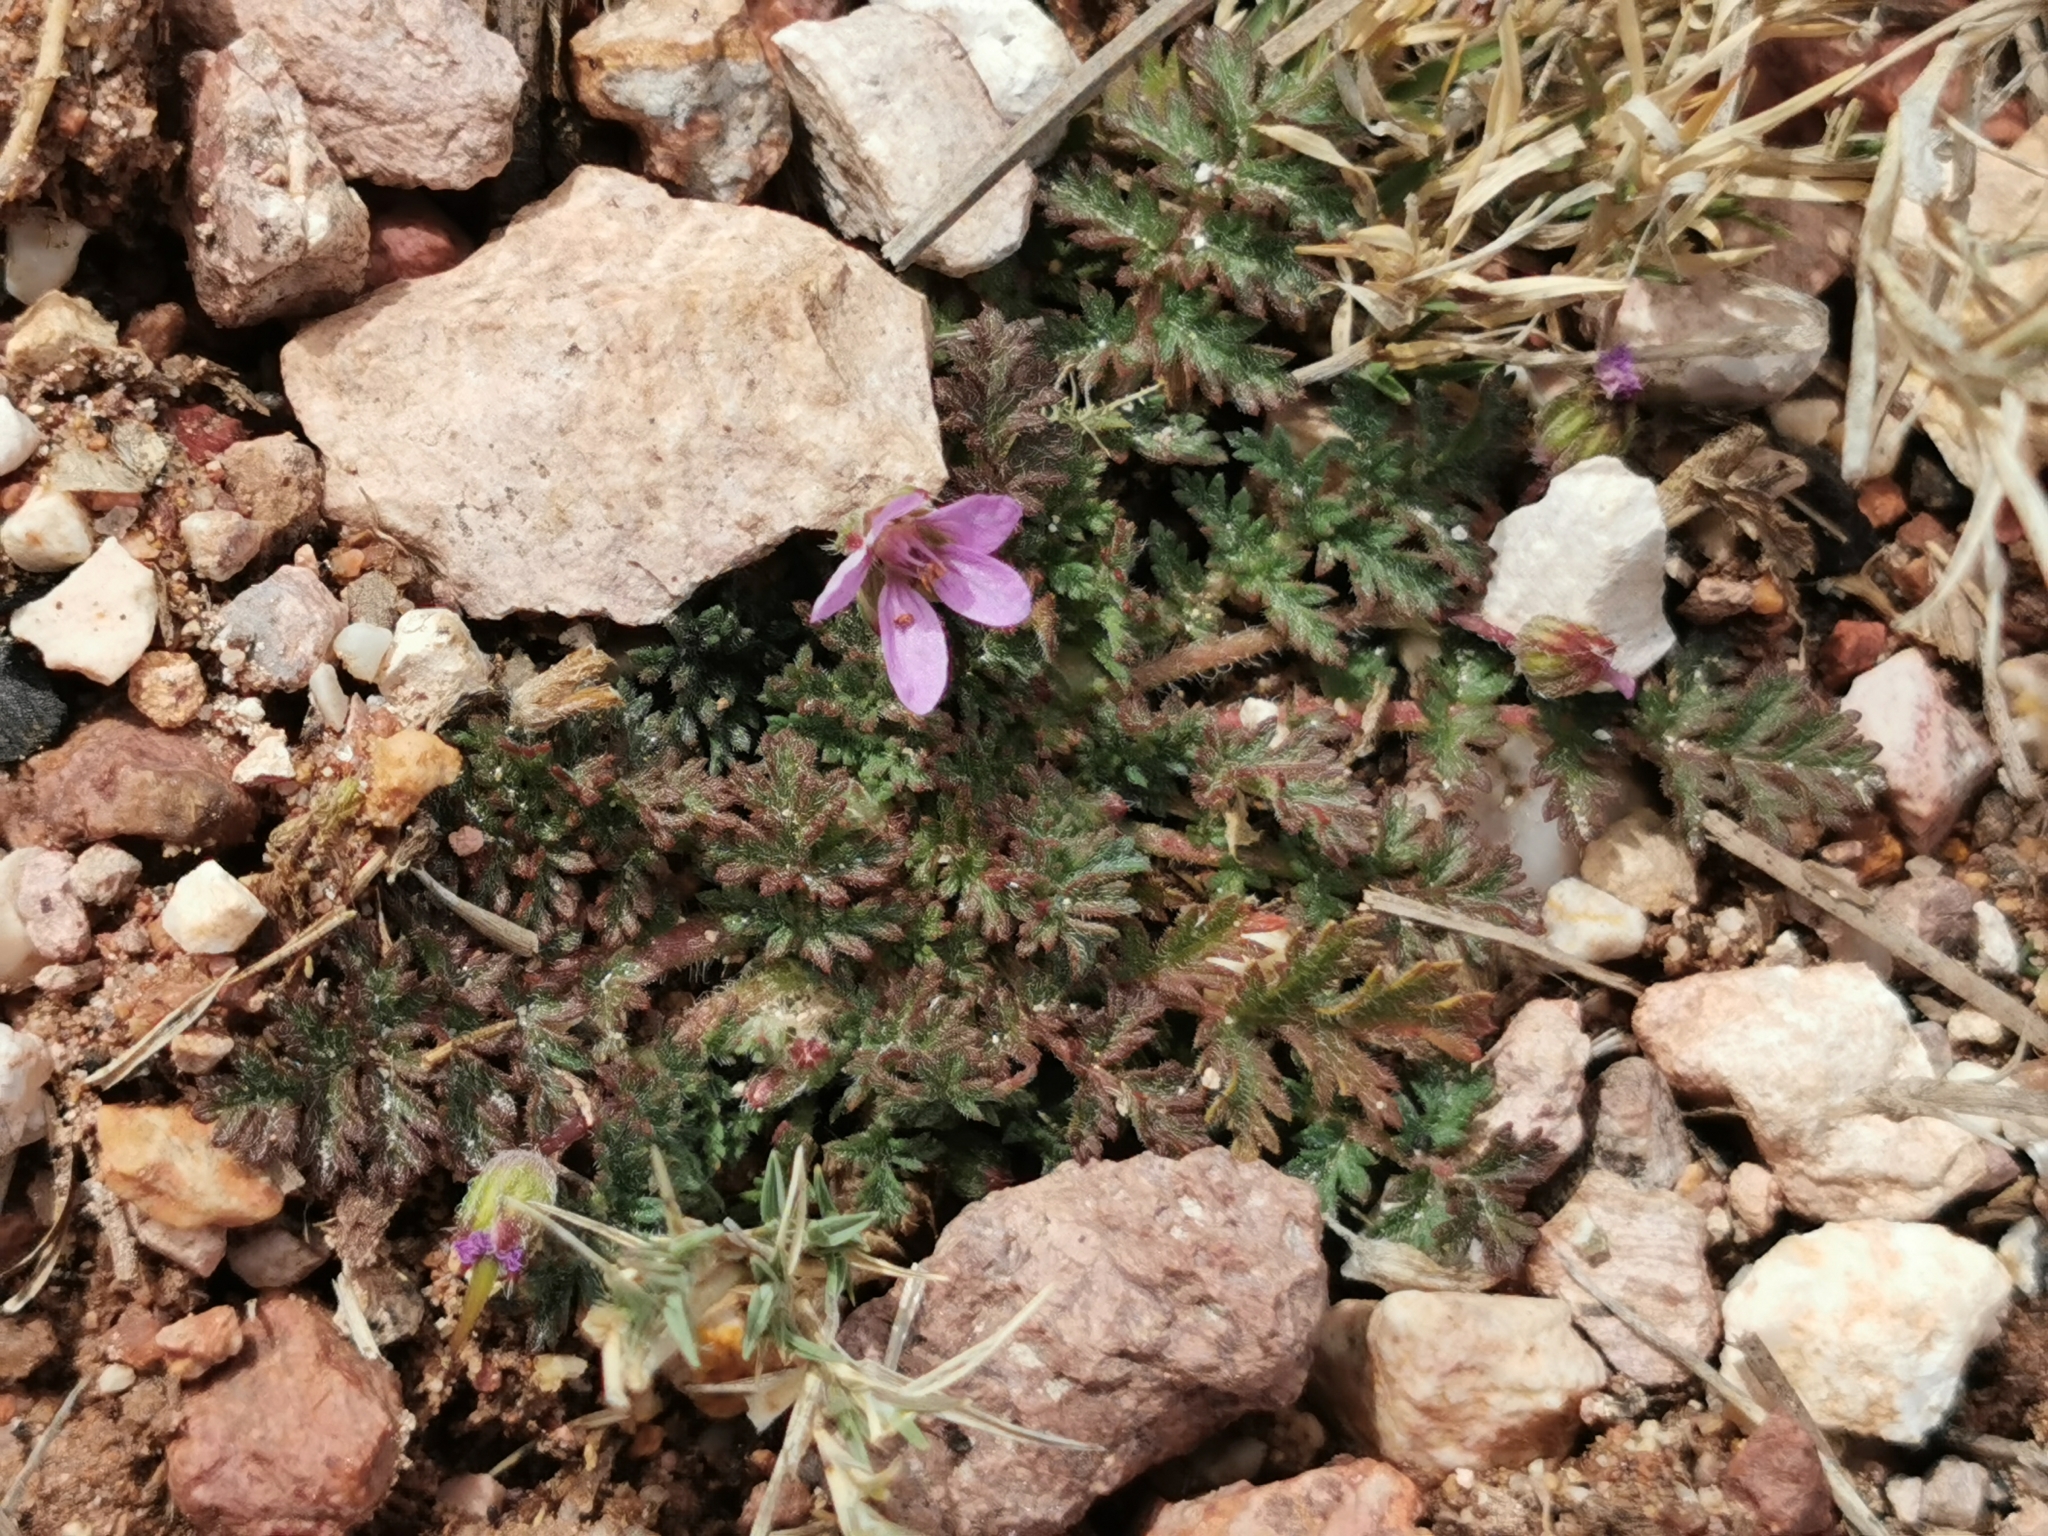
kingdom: Plantae
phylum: Tracheophyta
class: Magnoliopsida
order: Geraniales
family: Geraniaceae
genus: Erodium
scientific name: Erodium cicutarium
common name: Common stork's-bill
